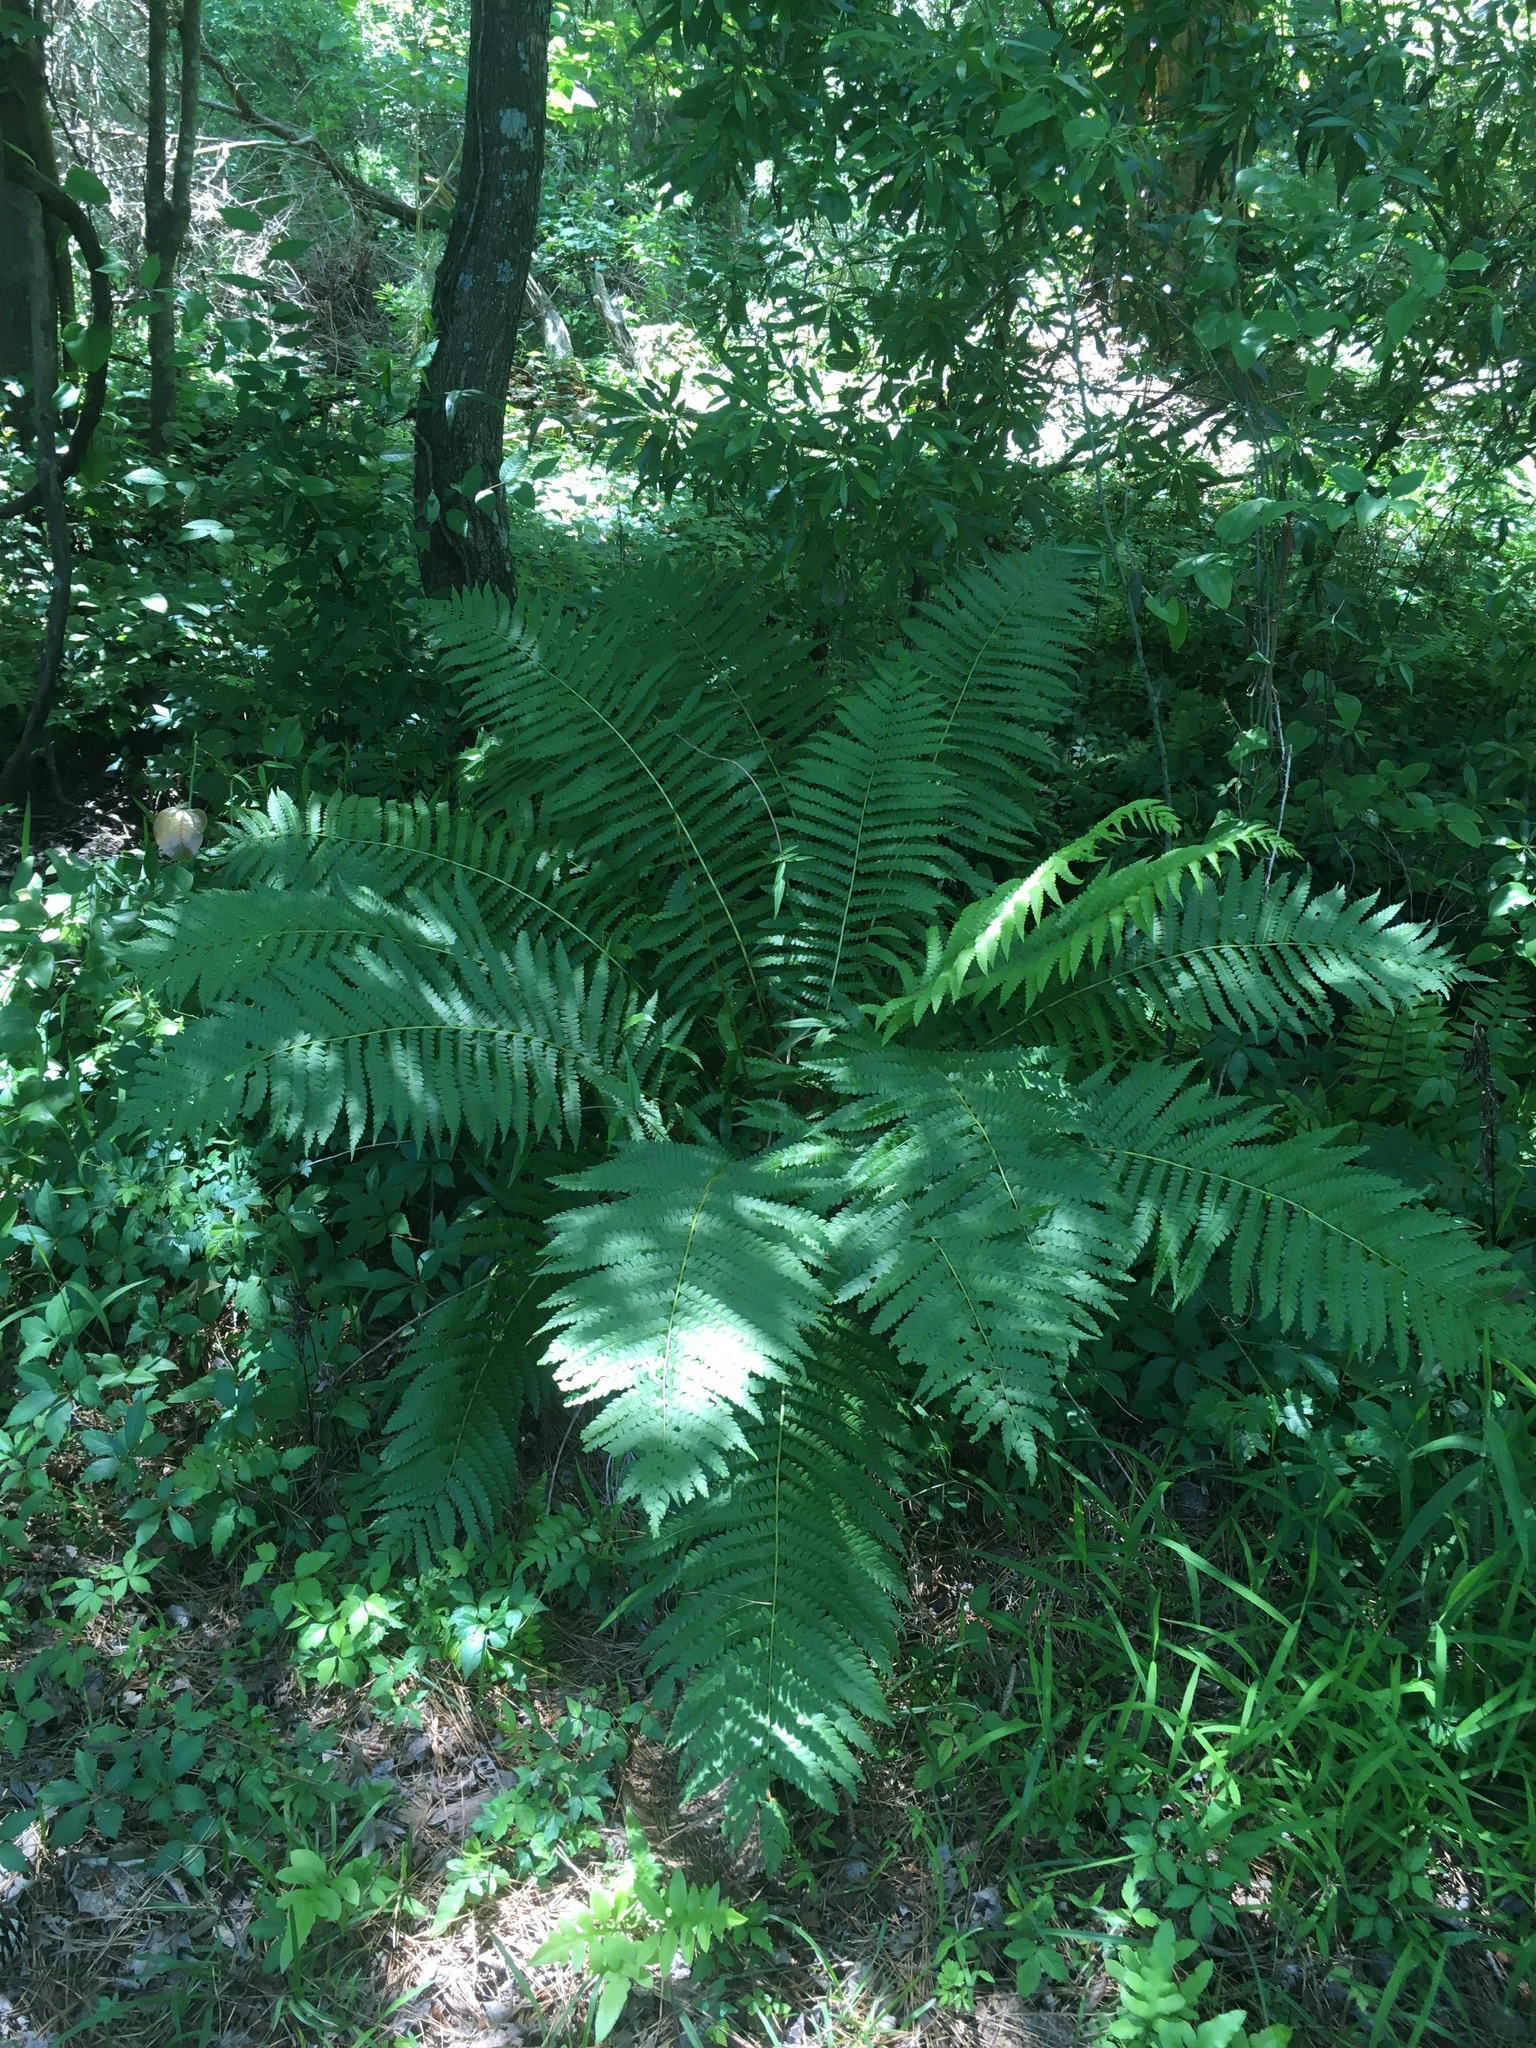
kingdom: Plantae
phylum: Tracheophyta
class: Polypodiopsida
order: Osmundales
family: Osmundaceae
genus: Osmundastrum
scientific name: Osmundastrum cinnamomeum
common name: Cinnamon fern
